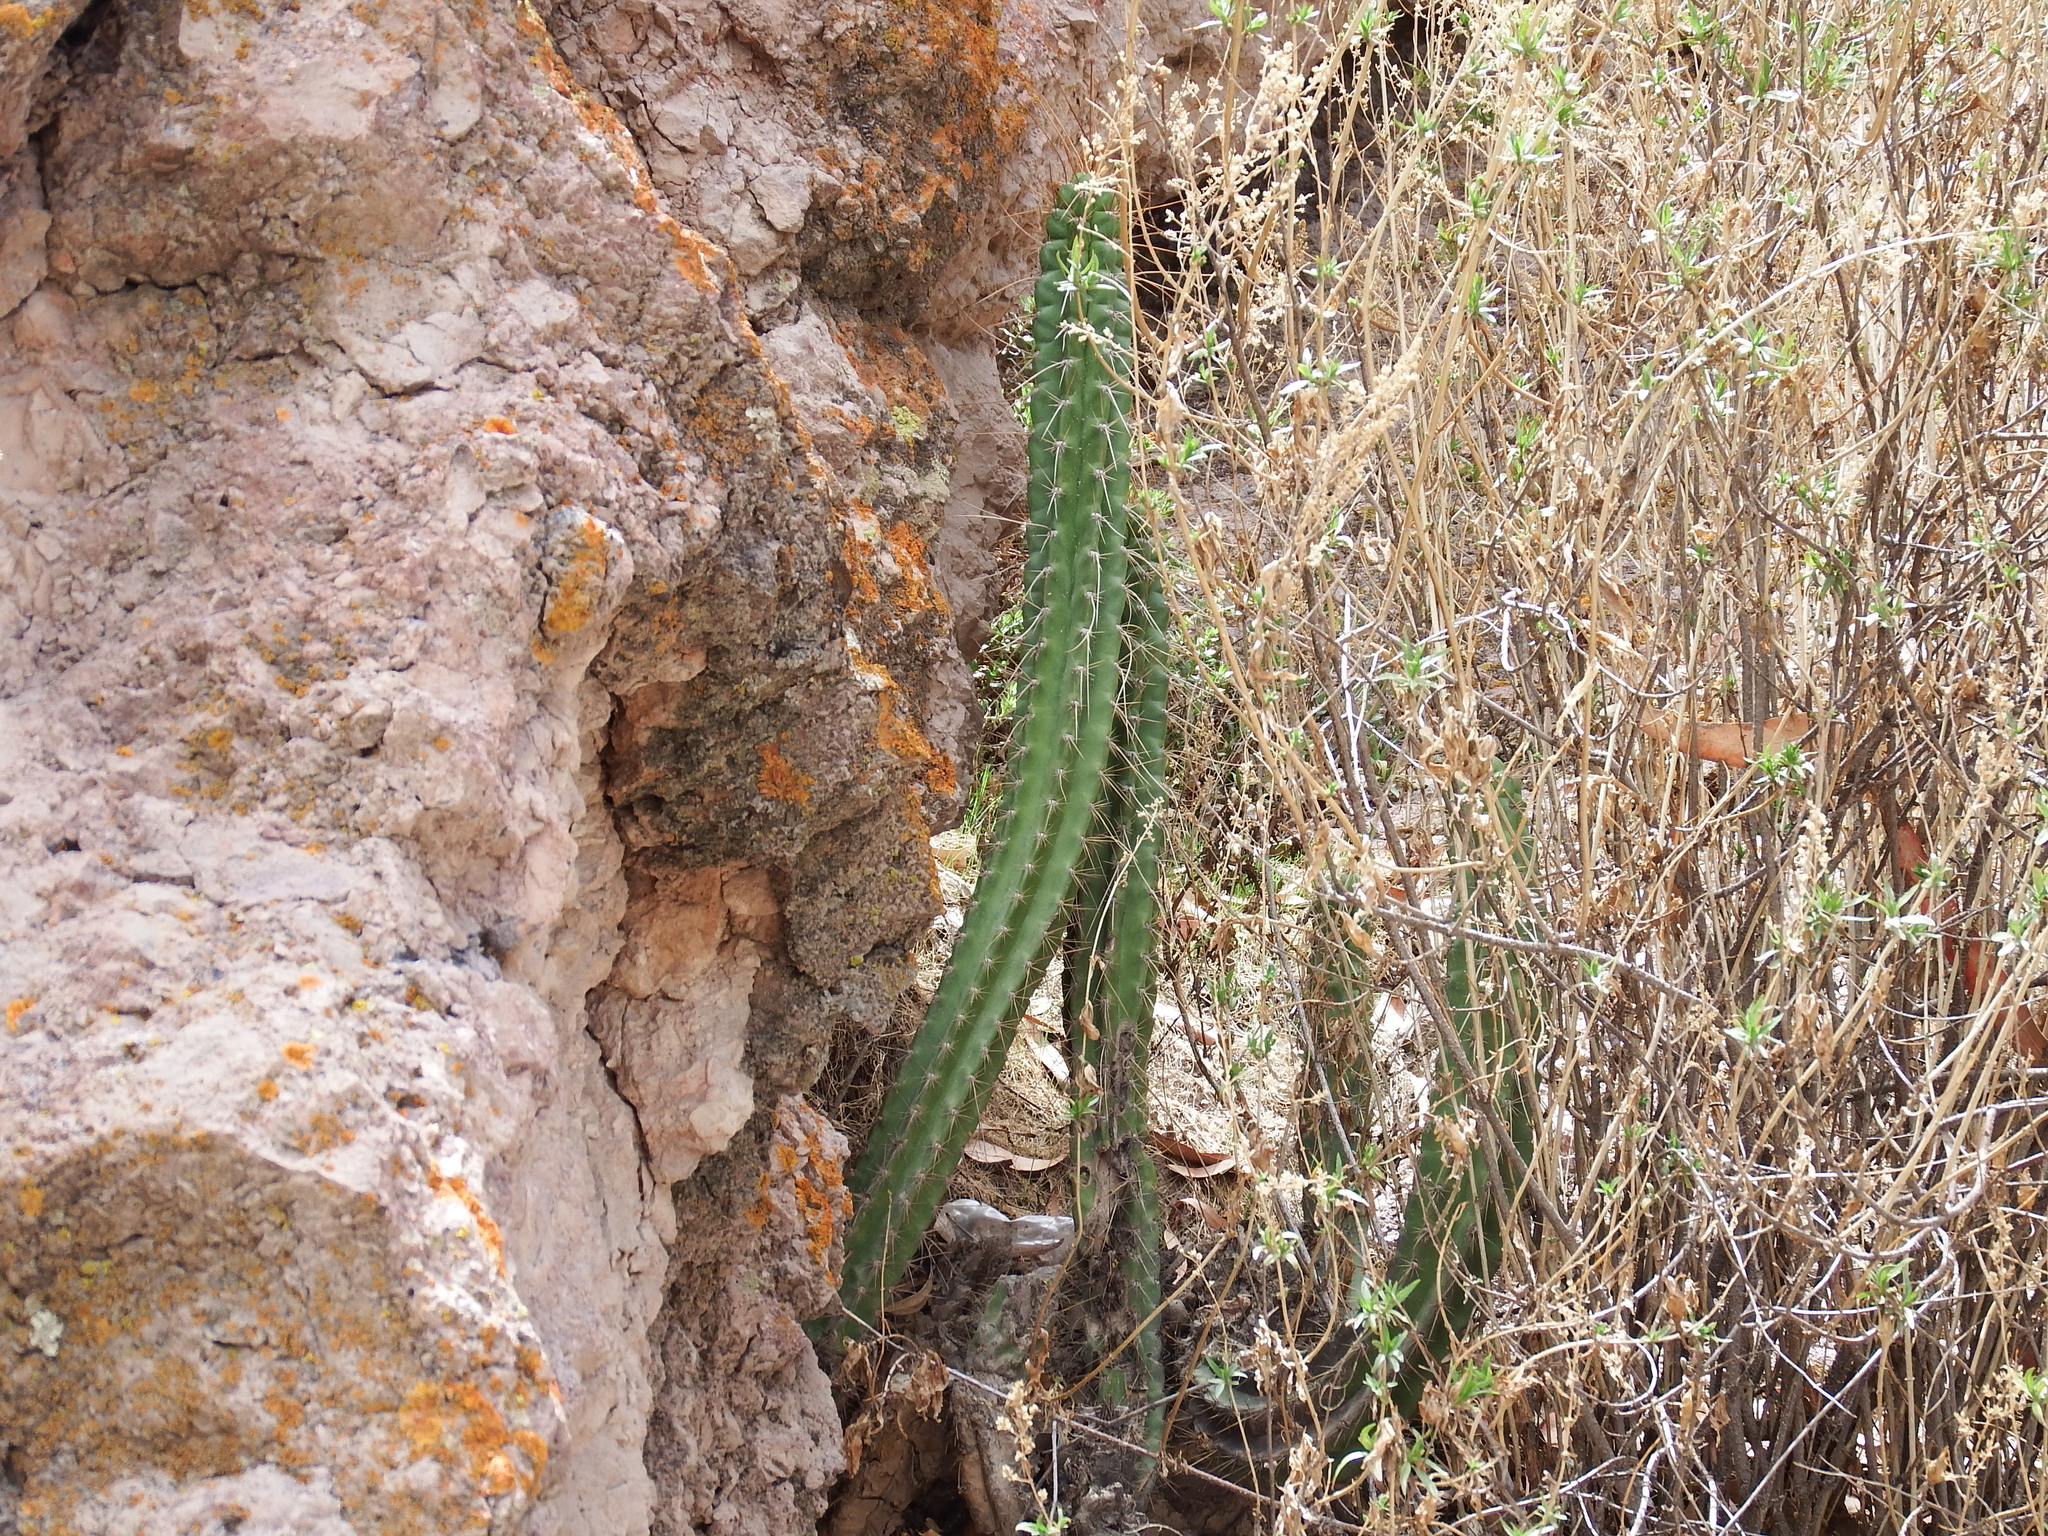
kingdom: Plantae
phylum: Tracheophyta
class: Magnoliopsida
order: Caryophyllales
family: Cactaceae
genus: Corryocactus
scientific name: Corryocactus brevistylus
